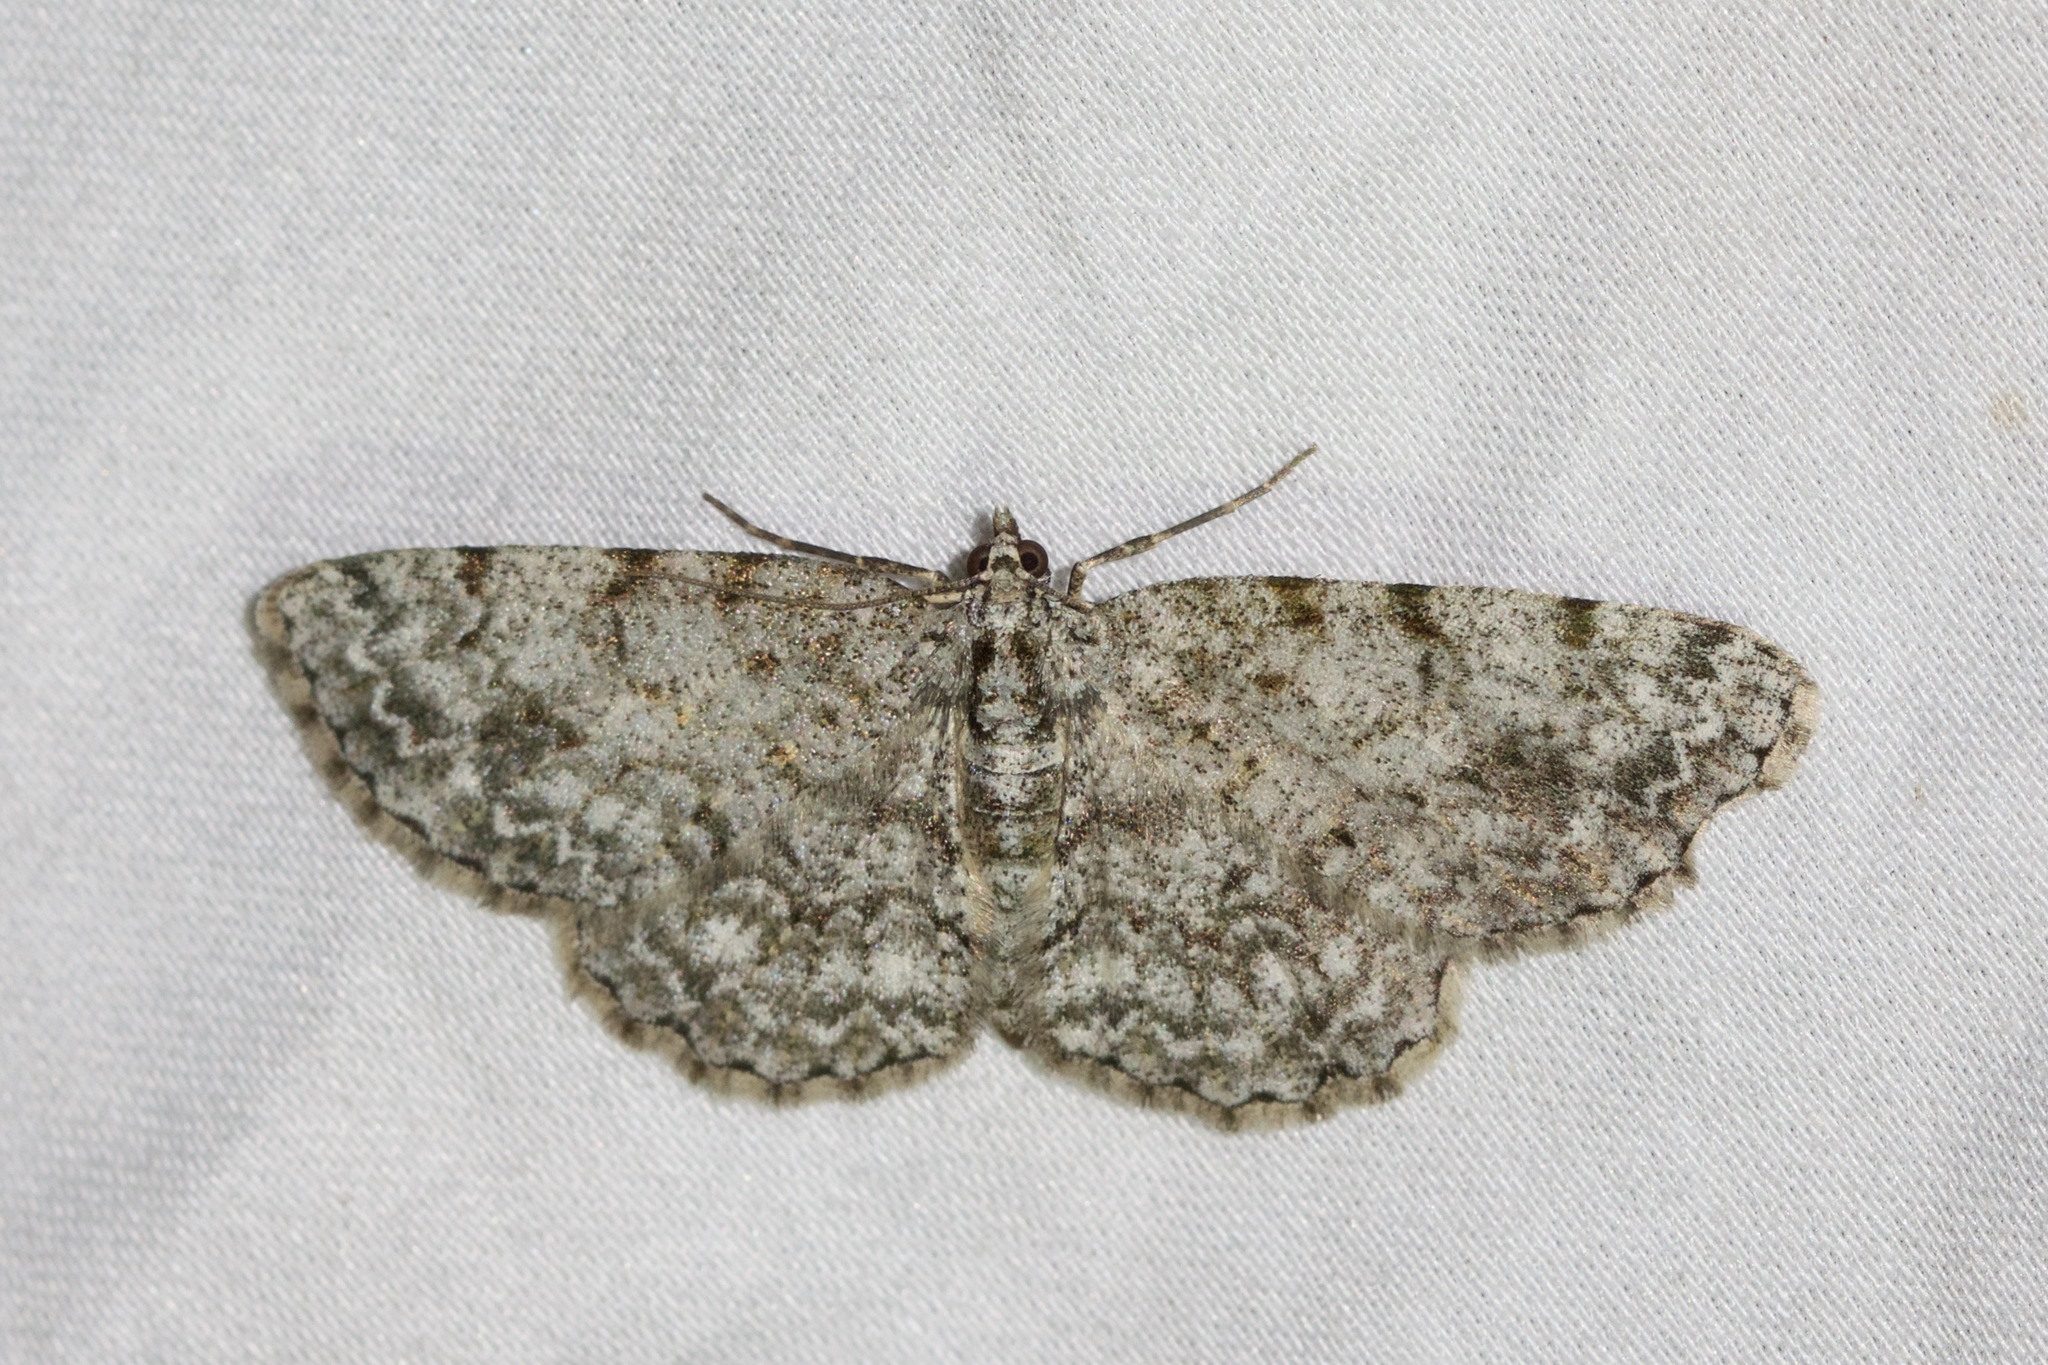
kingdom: Animalia
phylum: Arthropoda
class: Insecta
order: Lepidoptera
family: Geometridae
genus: Protoboarmia
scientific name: Protoboarmia porcelaria
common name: Porcelain gray
